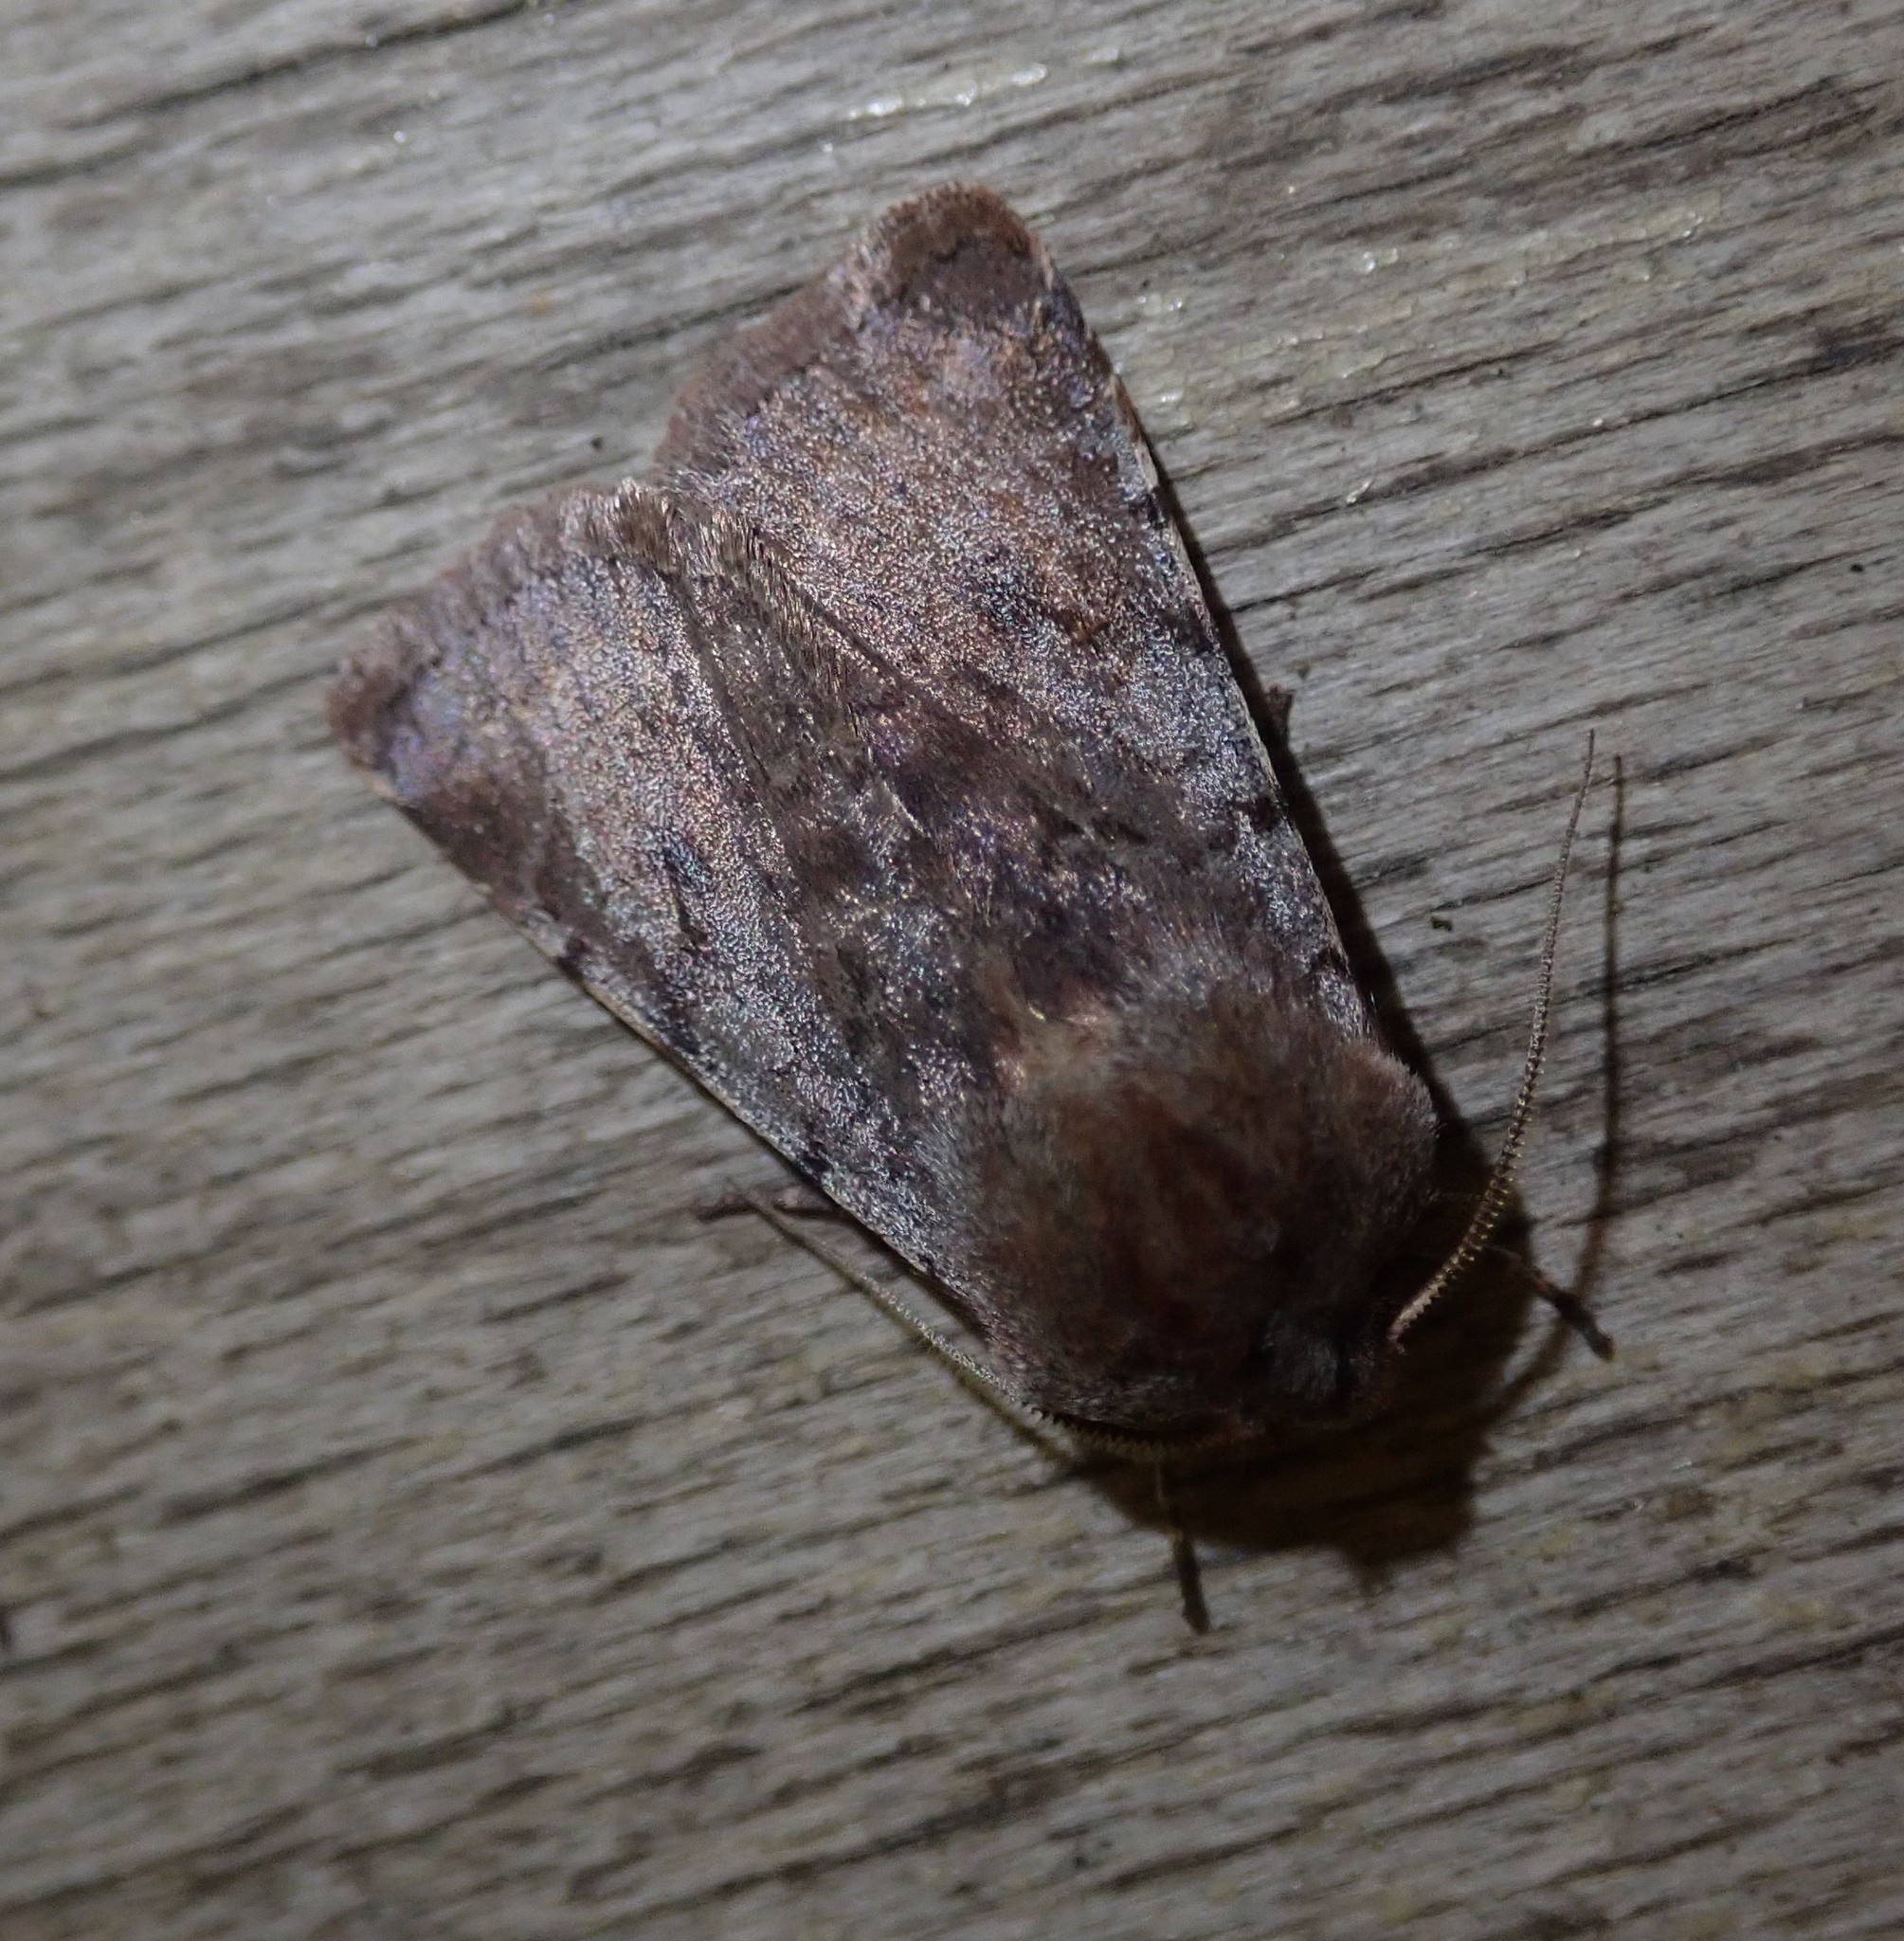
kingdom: Animalia
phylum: Arthropoda
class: Insecta
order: Lepidoptera
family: Noctuidae
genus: Cerastis
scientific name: Cerastis rubricosa
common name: Red chestnut
